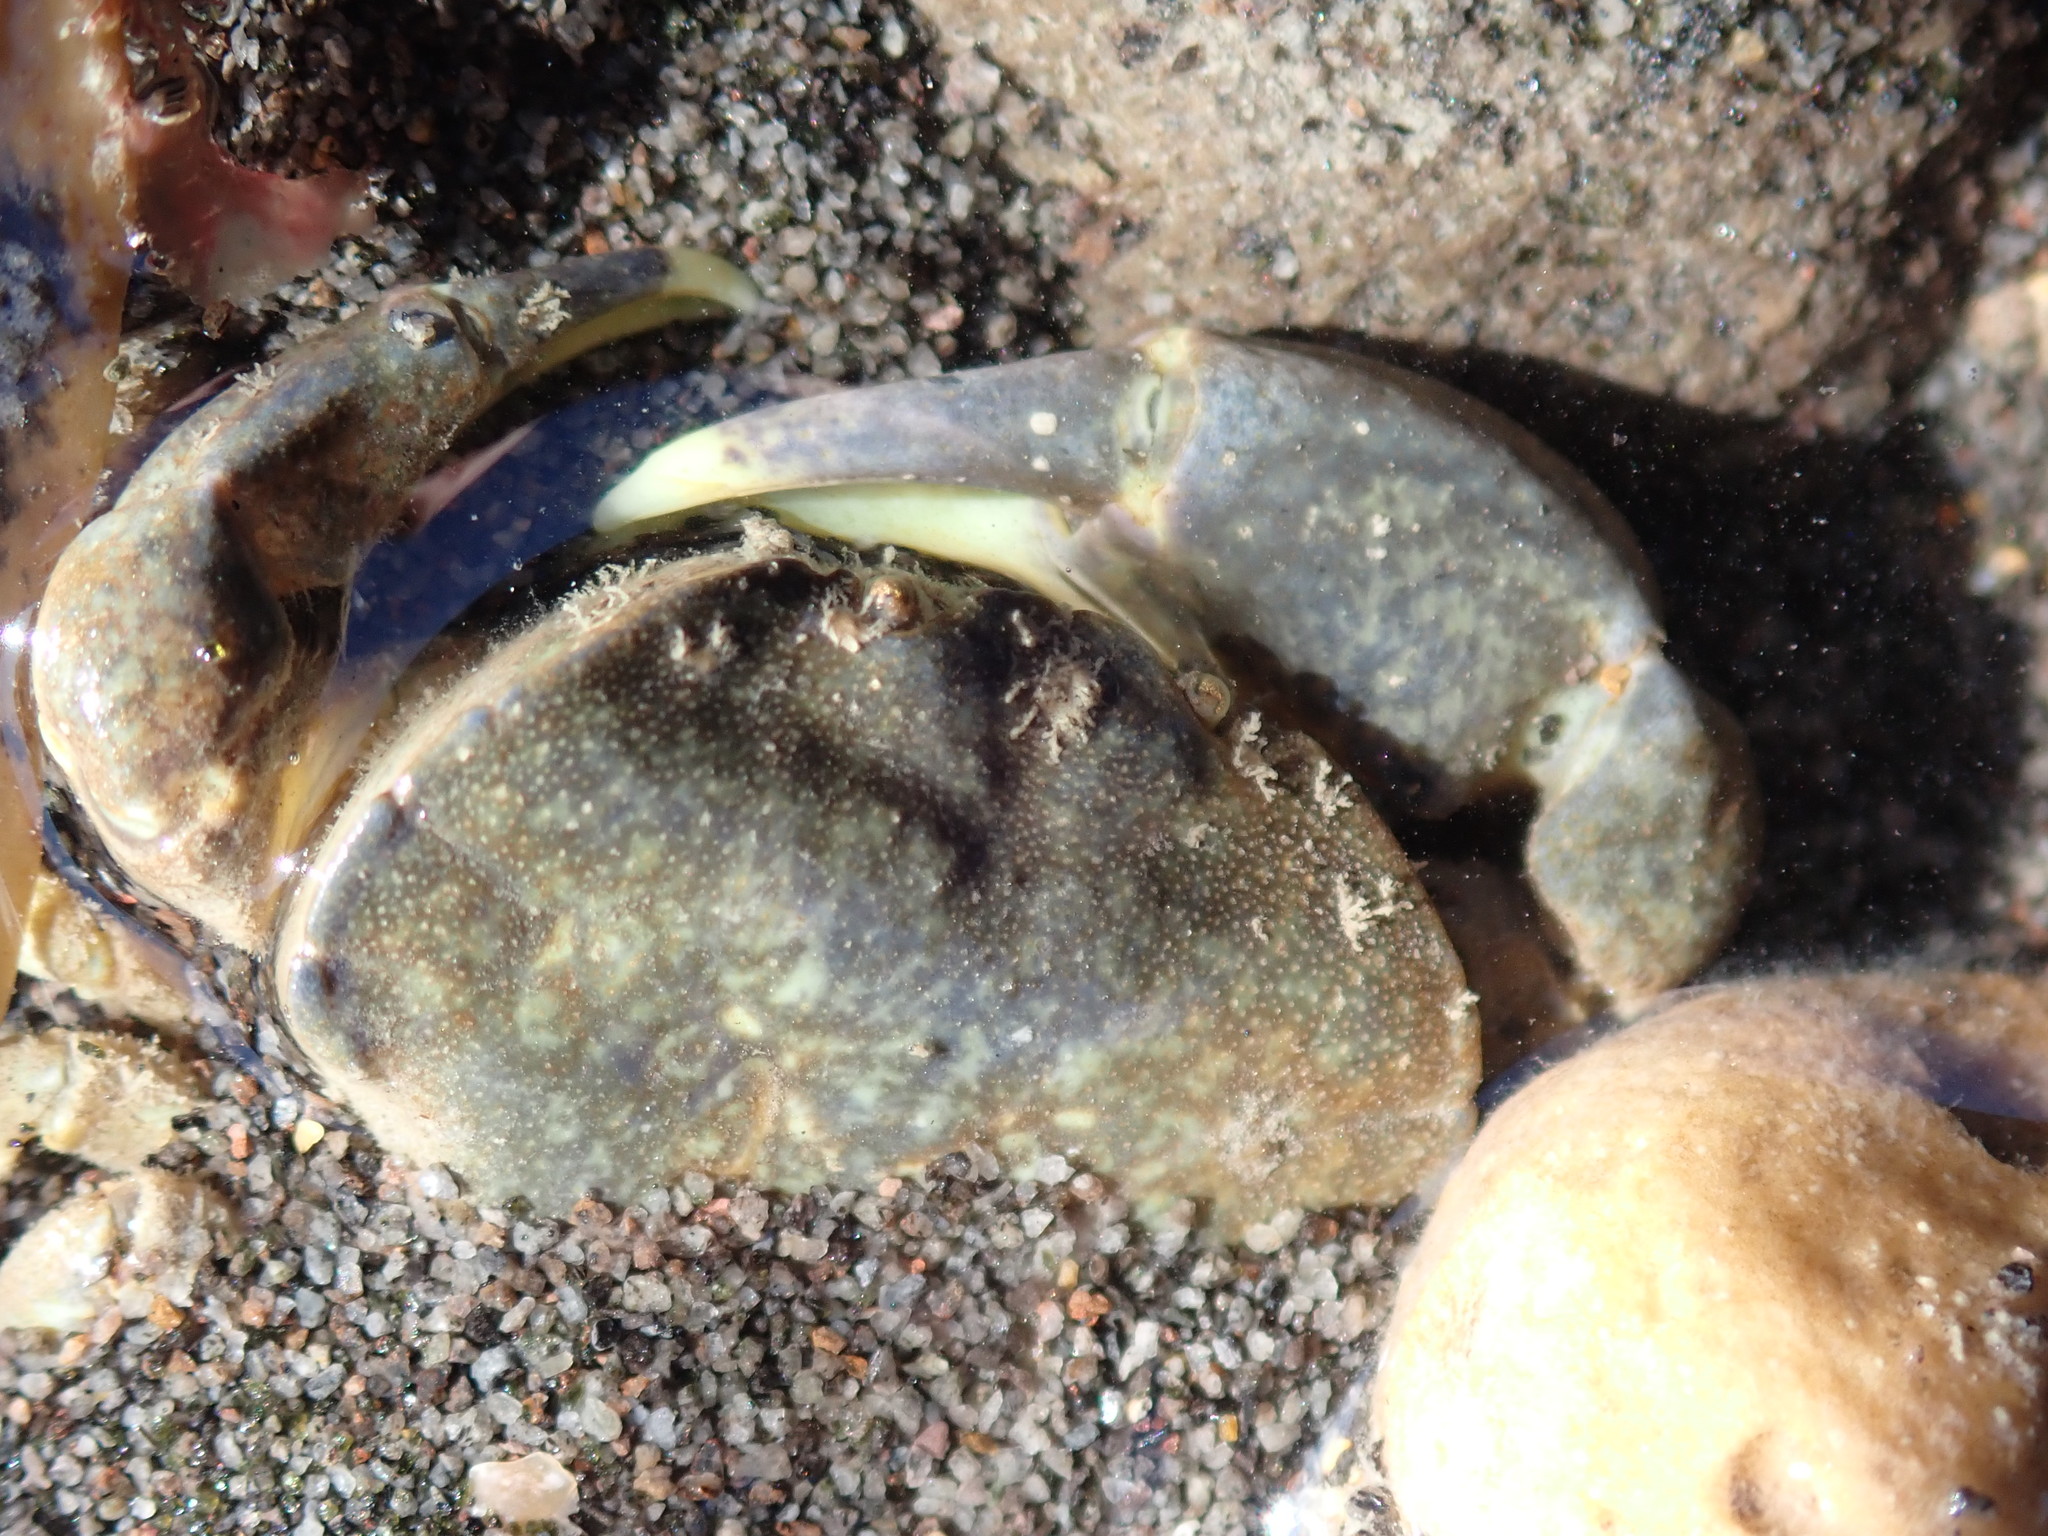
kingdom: Animalia
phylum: Arthropoda
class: Malacostraca
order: Decapoda
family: Heteroziidae
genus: Heterozius
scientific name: Heterozius rotundifrons
